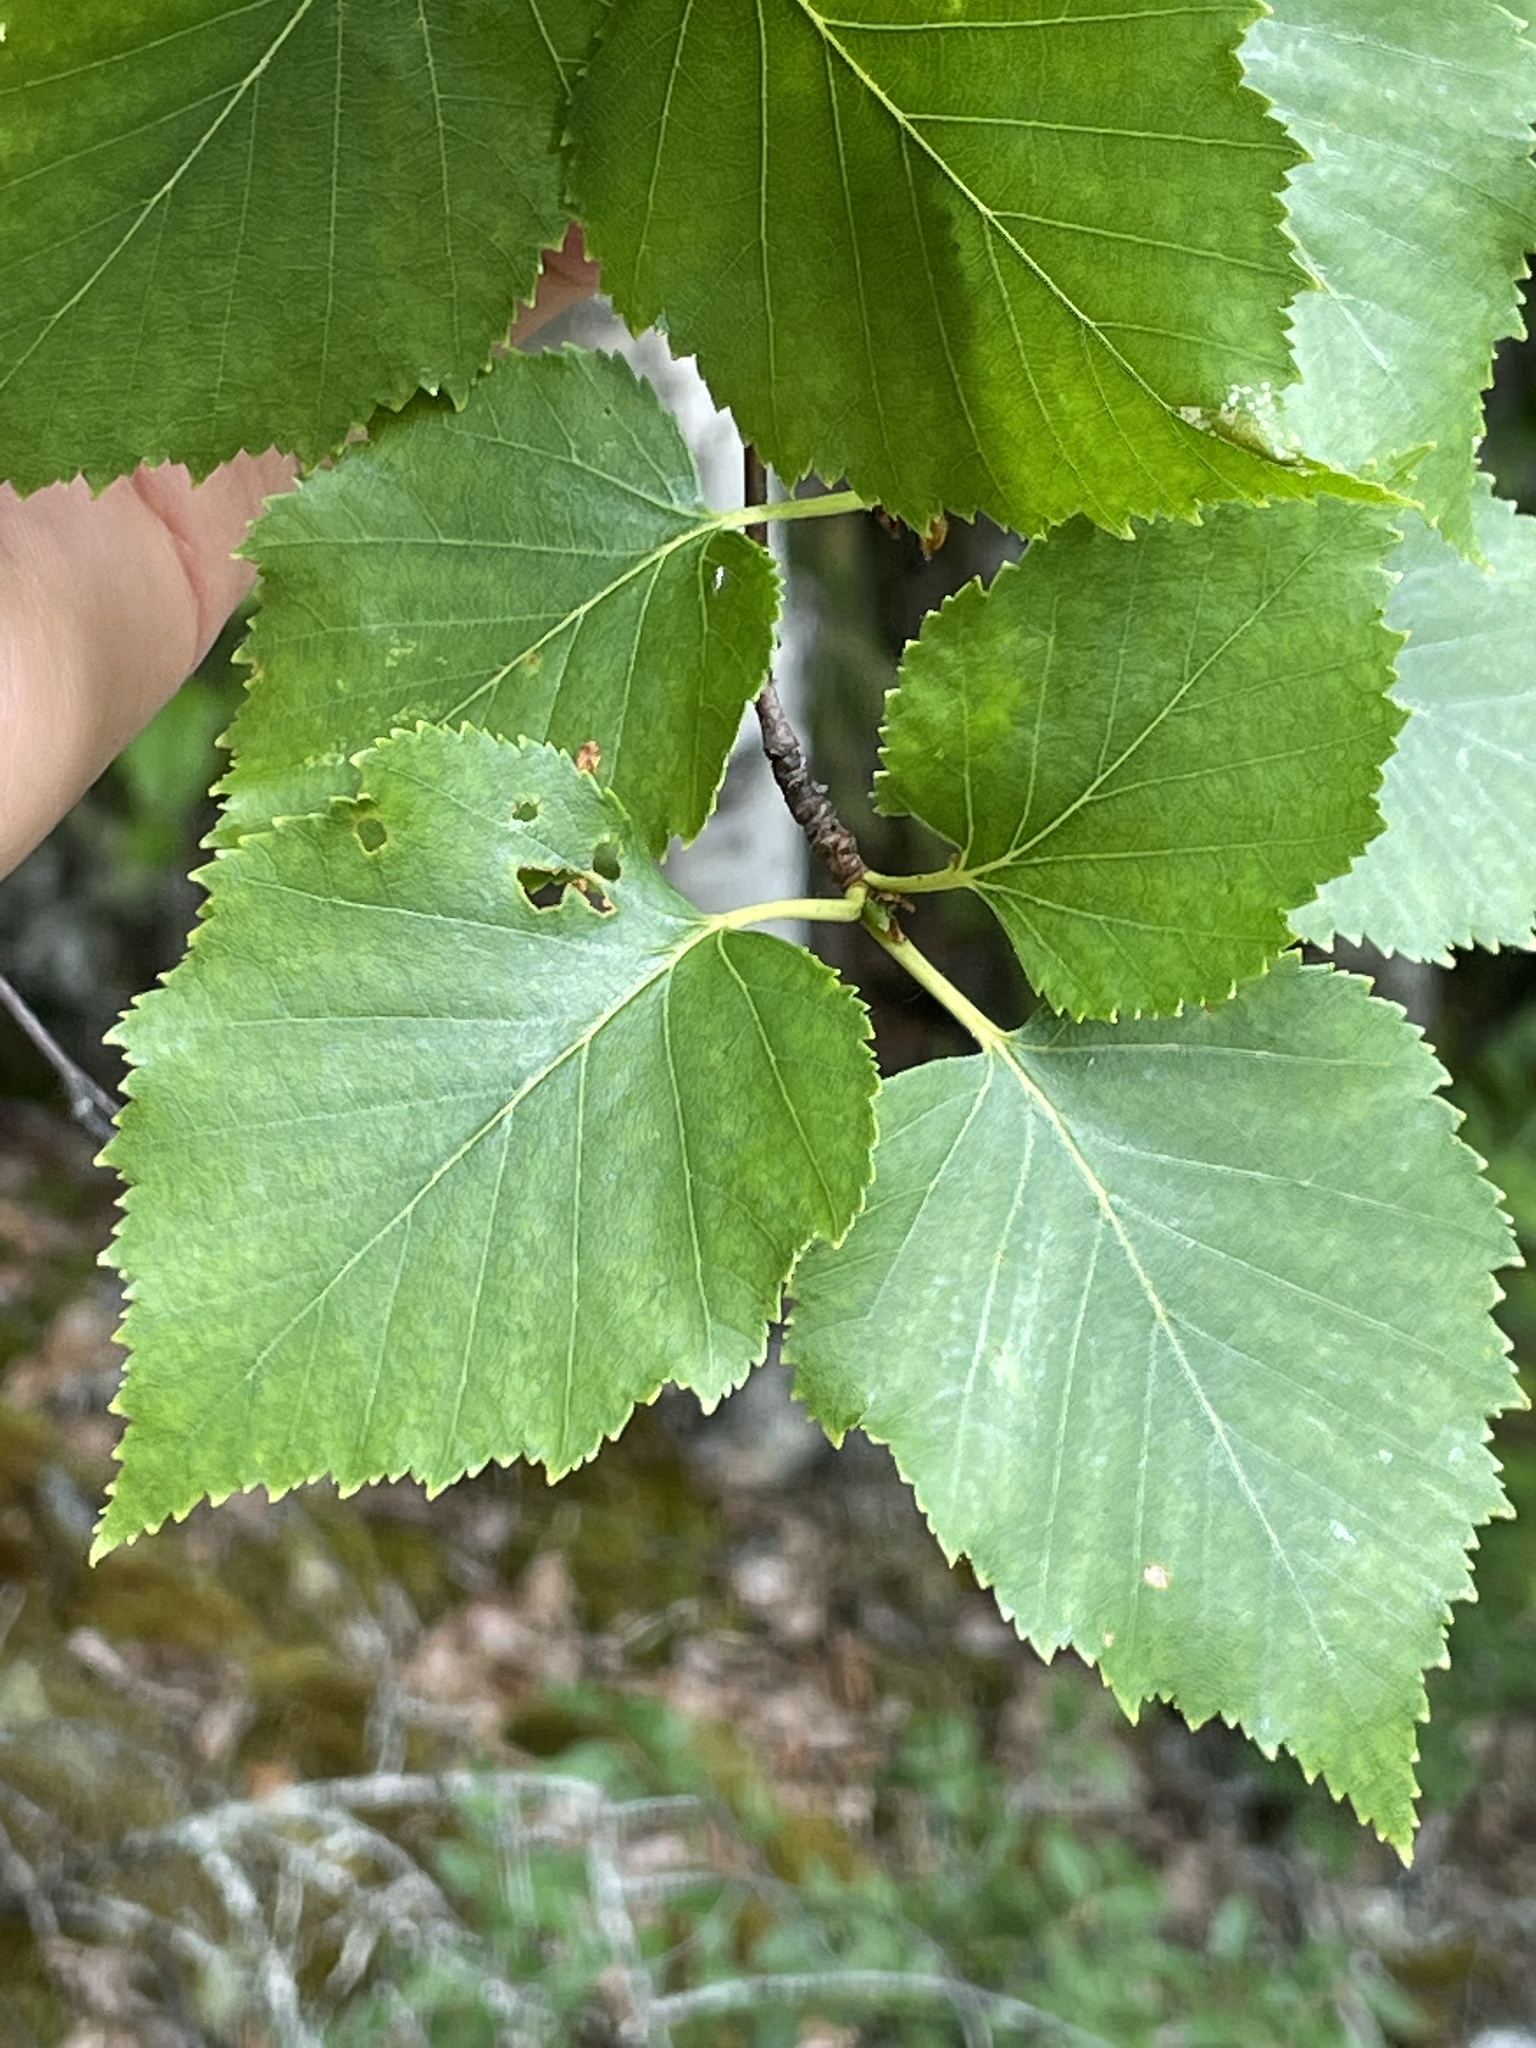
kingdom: Plantae
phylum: Tracheophyta
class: Magnoliopsida
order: Fagales
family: Betulaceae
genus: Betula
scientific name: Betula papyrifera
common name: Paper birch
